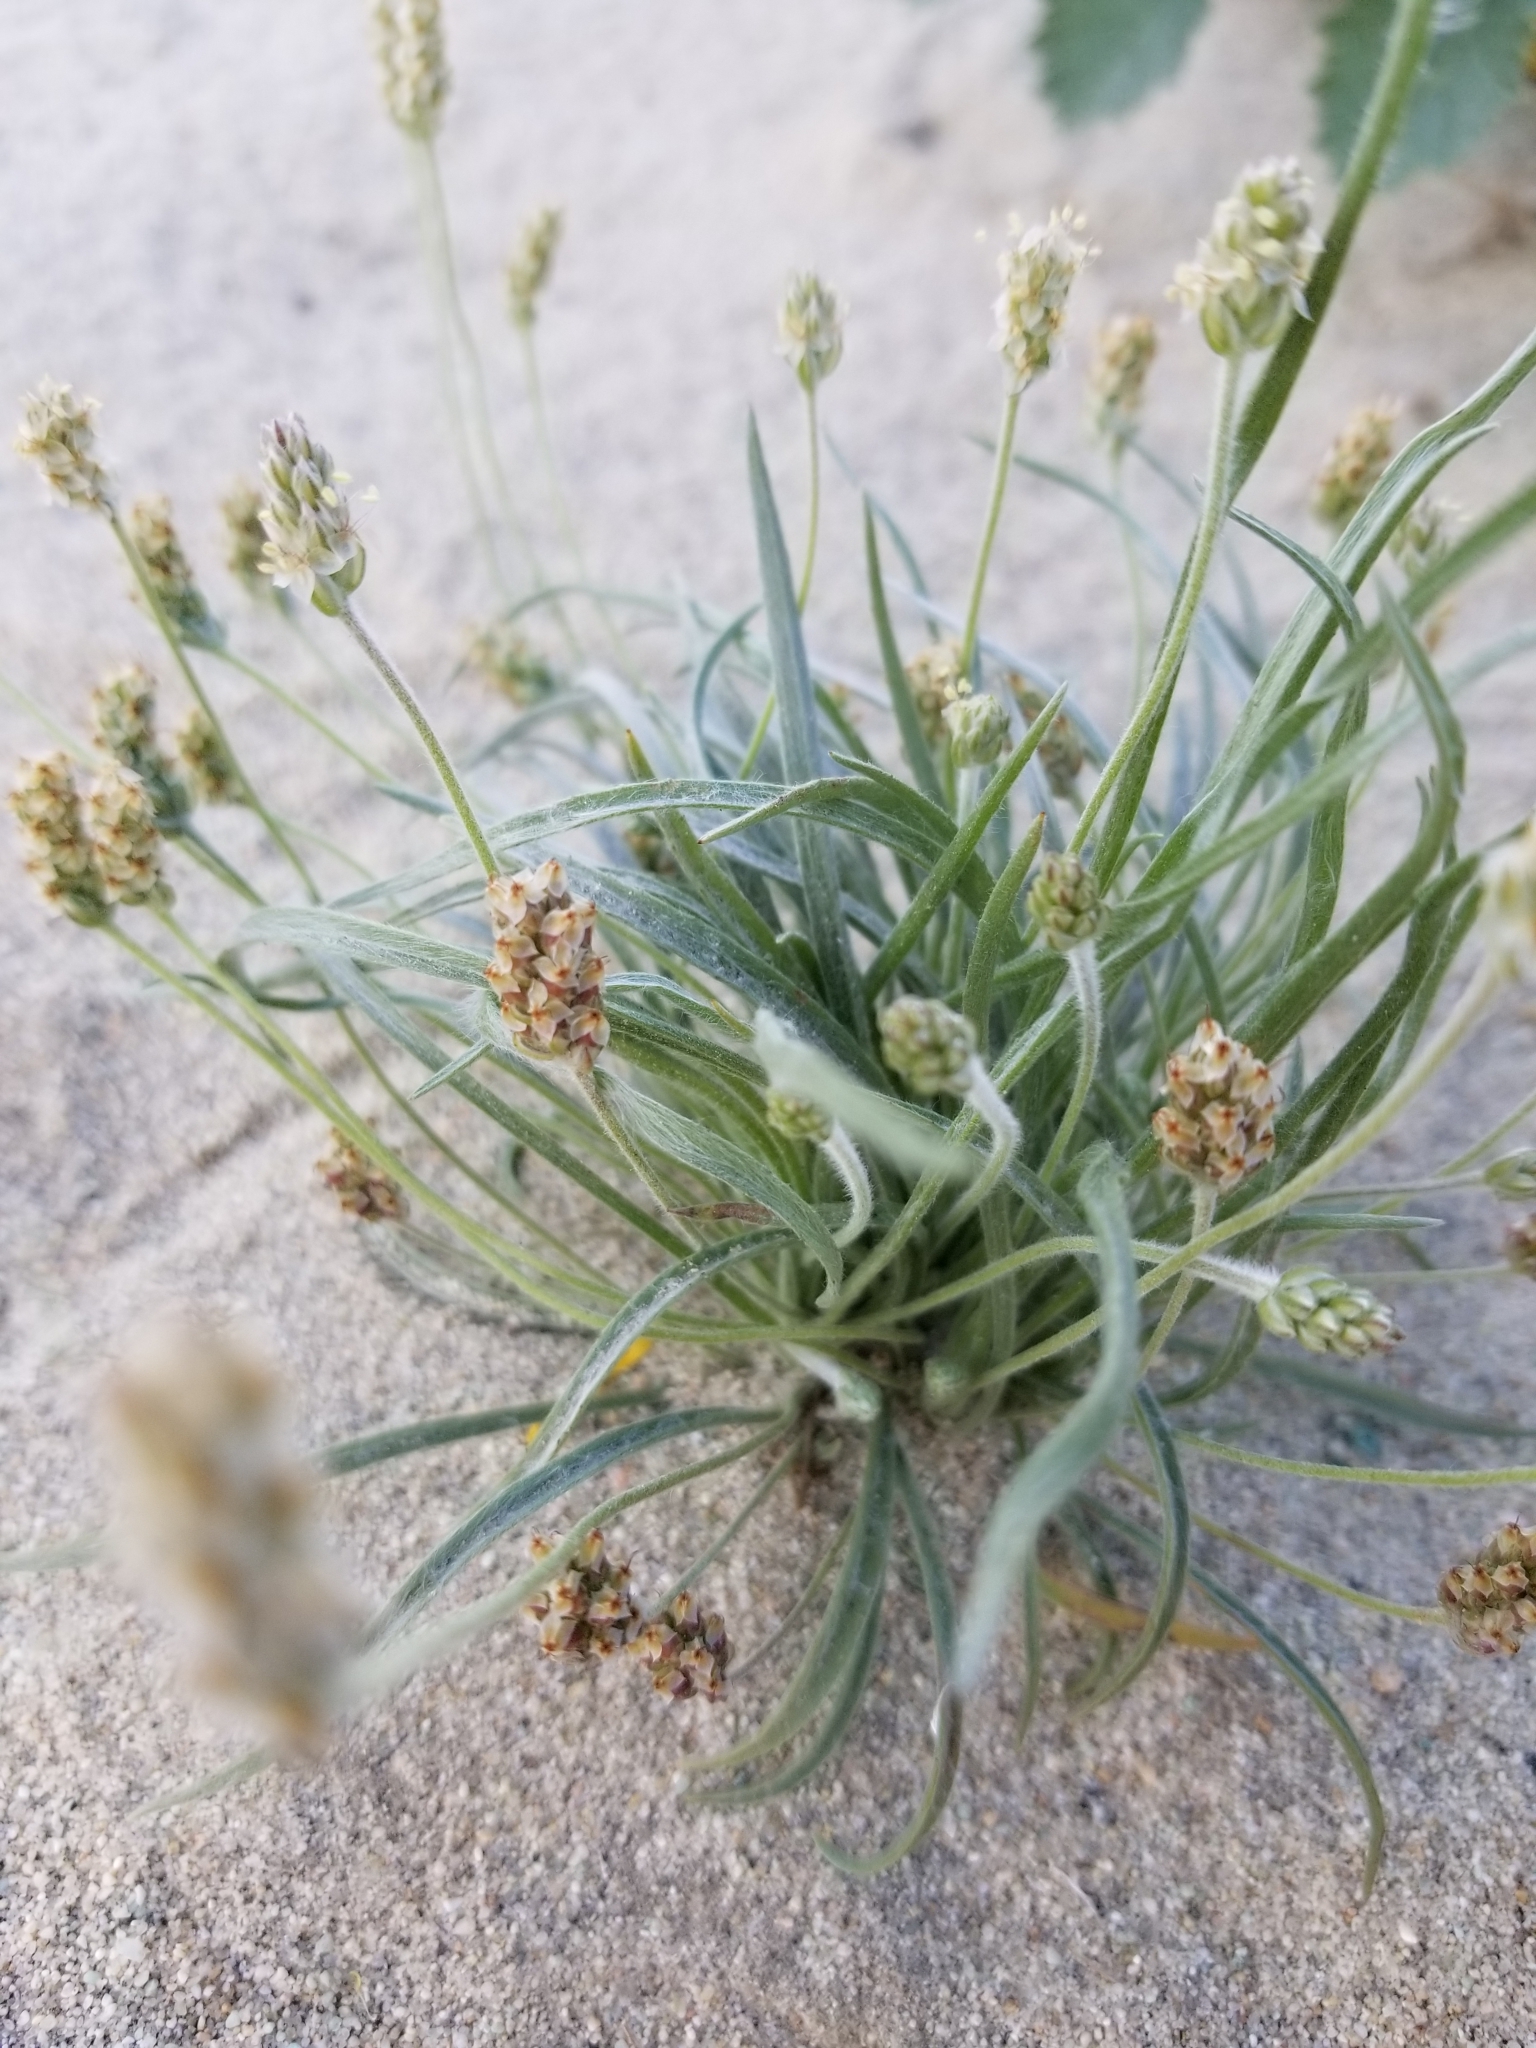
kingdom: Plantae
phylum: Tracheophyta
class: Magnoliopsida
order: Lamiales
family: Plantaginaceae
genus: Plantago
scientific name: Plantago ovata
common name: Blond plantain
